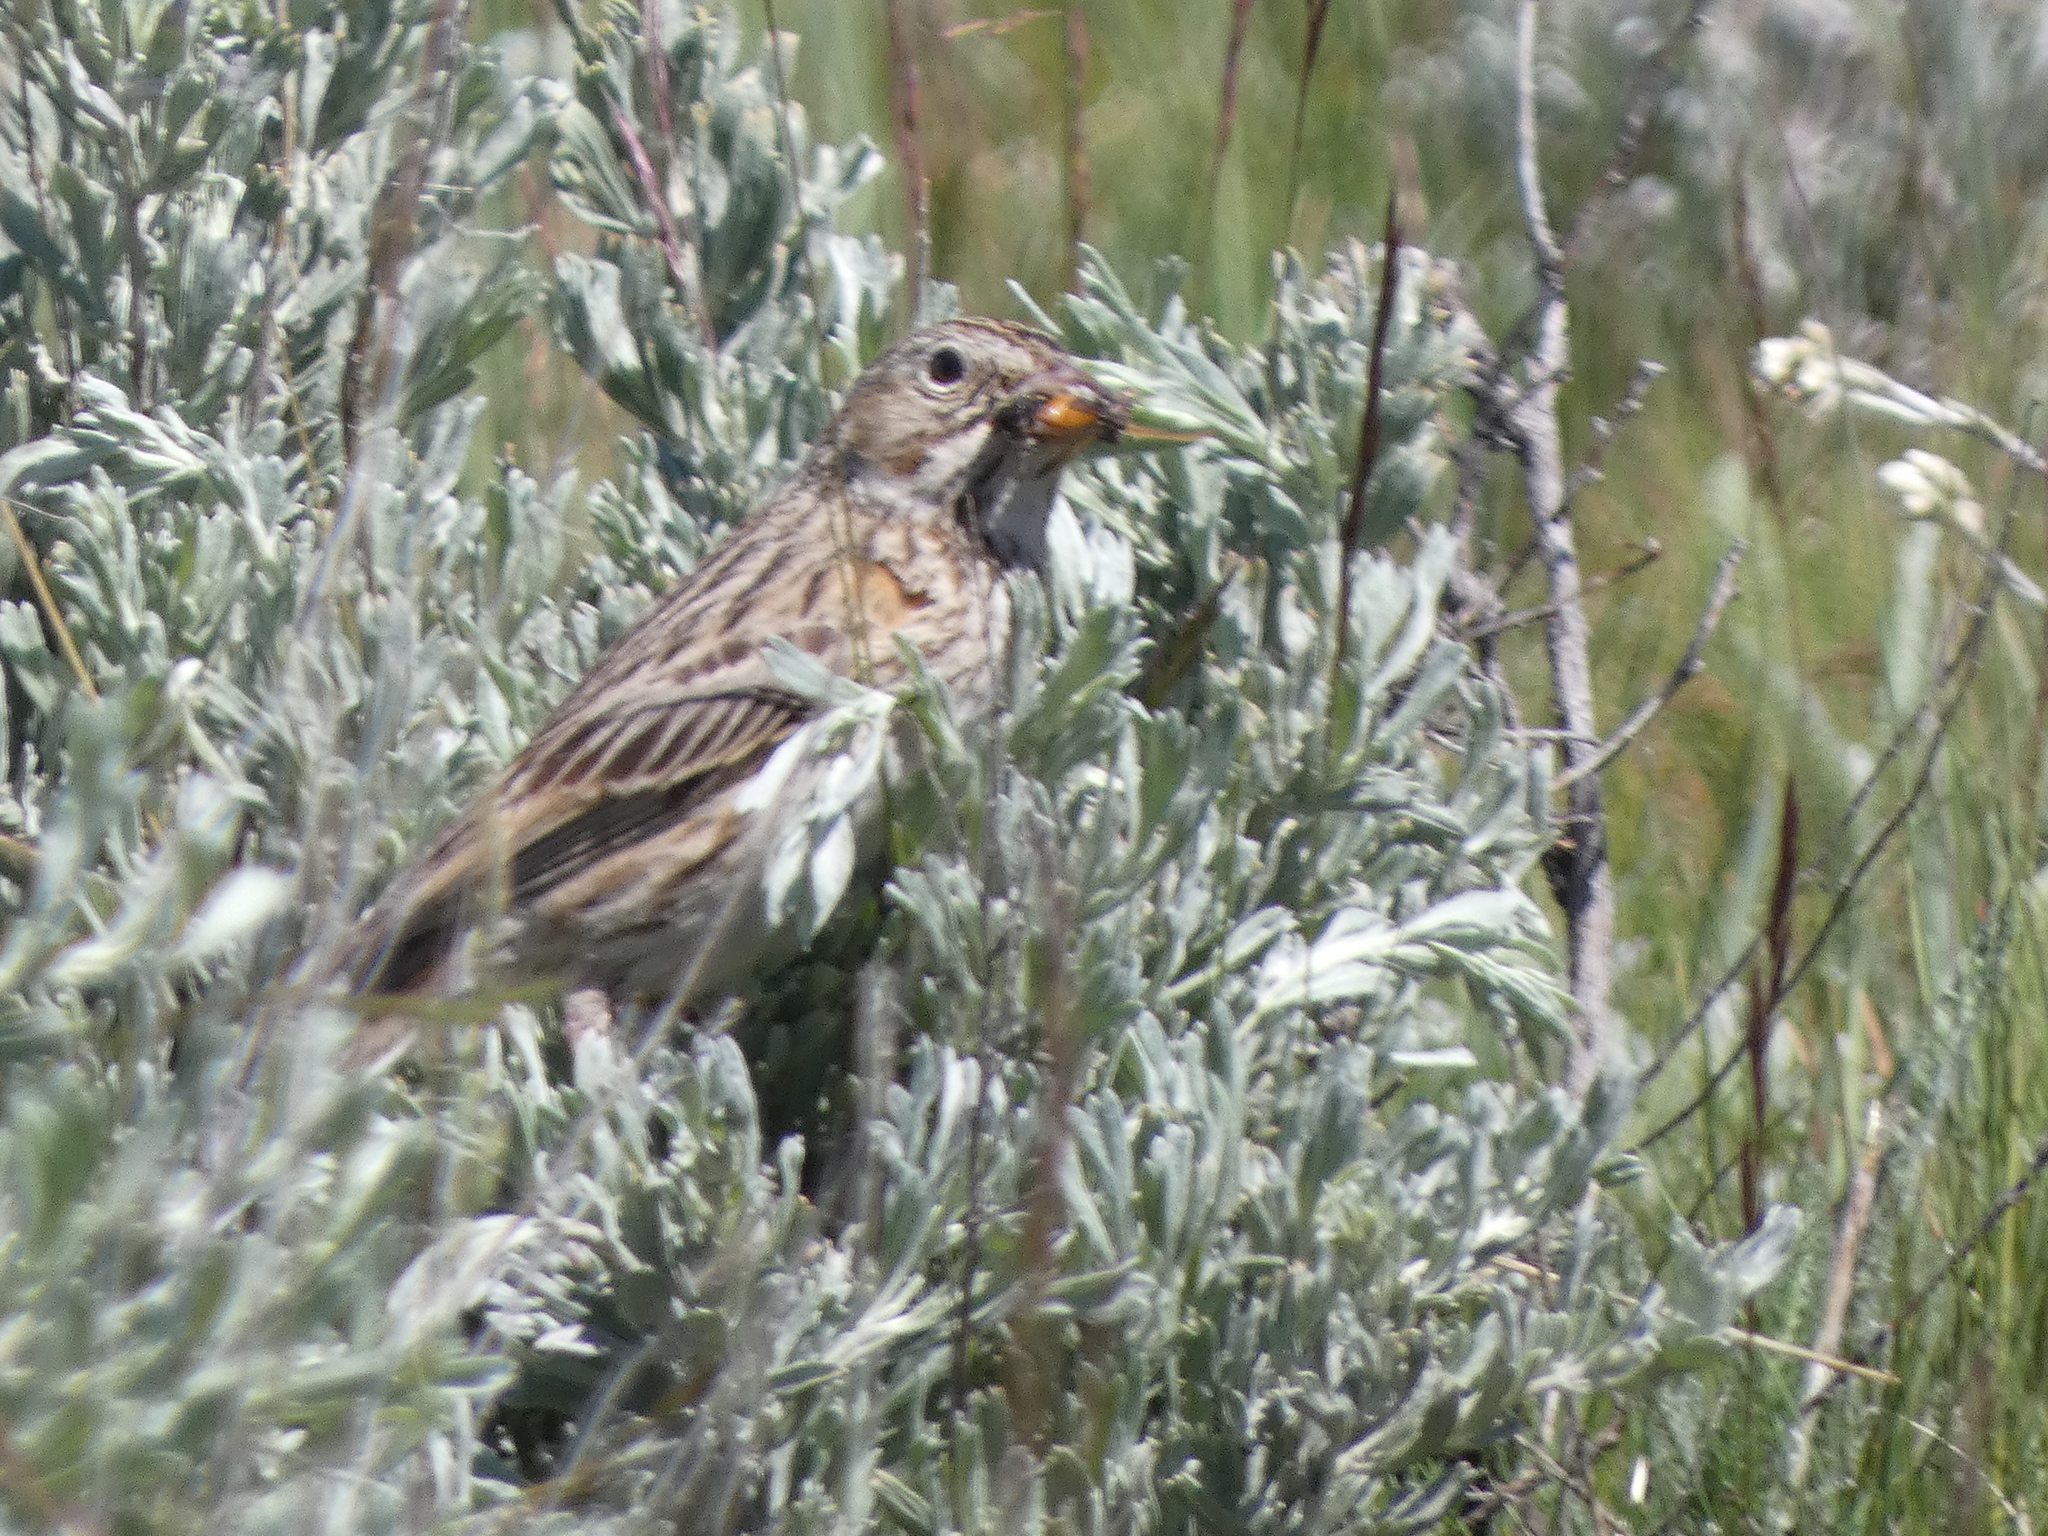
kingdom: Animalia
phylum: Chordata
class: Aves
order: Passeriformes
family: Passerellidae
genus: Pooecetes
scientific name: Pooecetes gramineus
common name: Vesper sparrow
